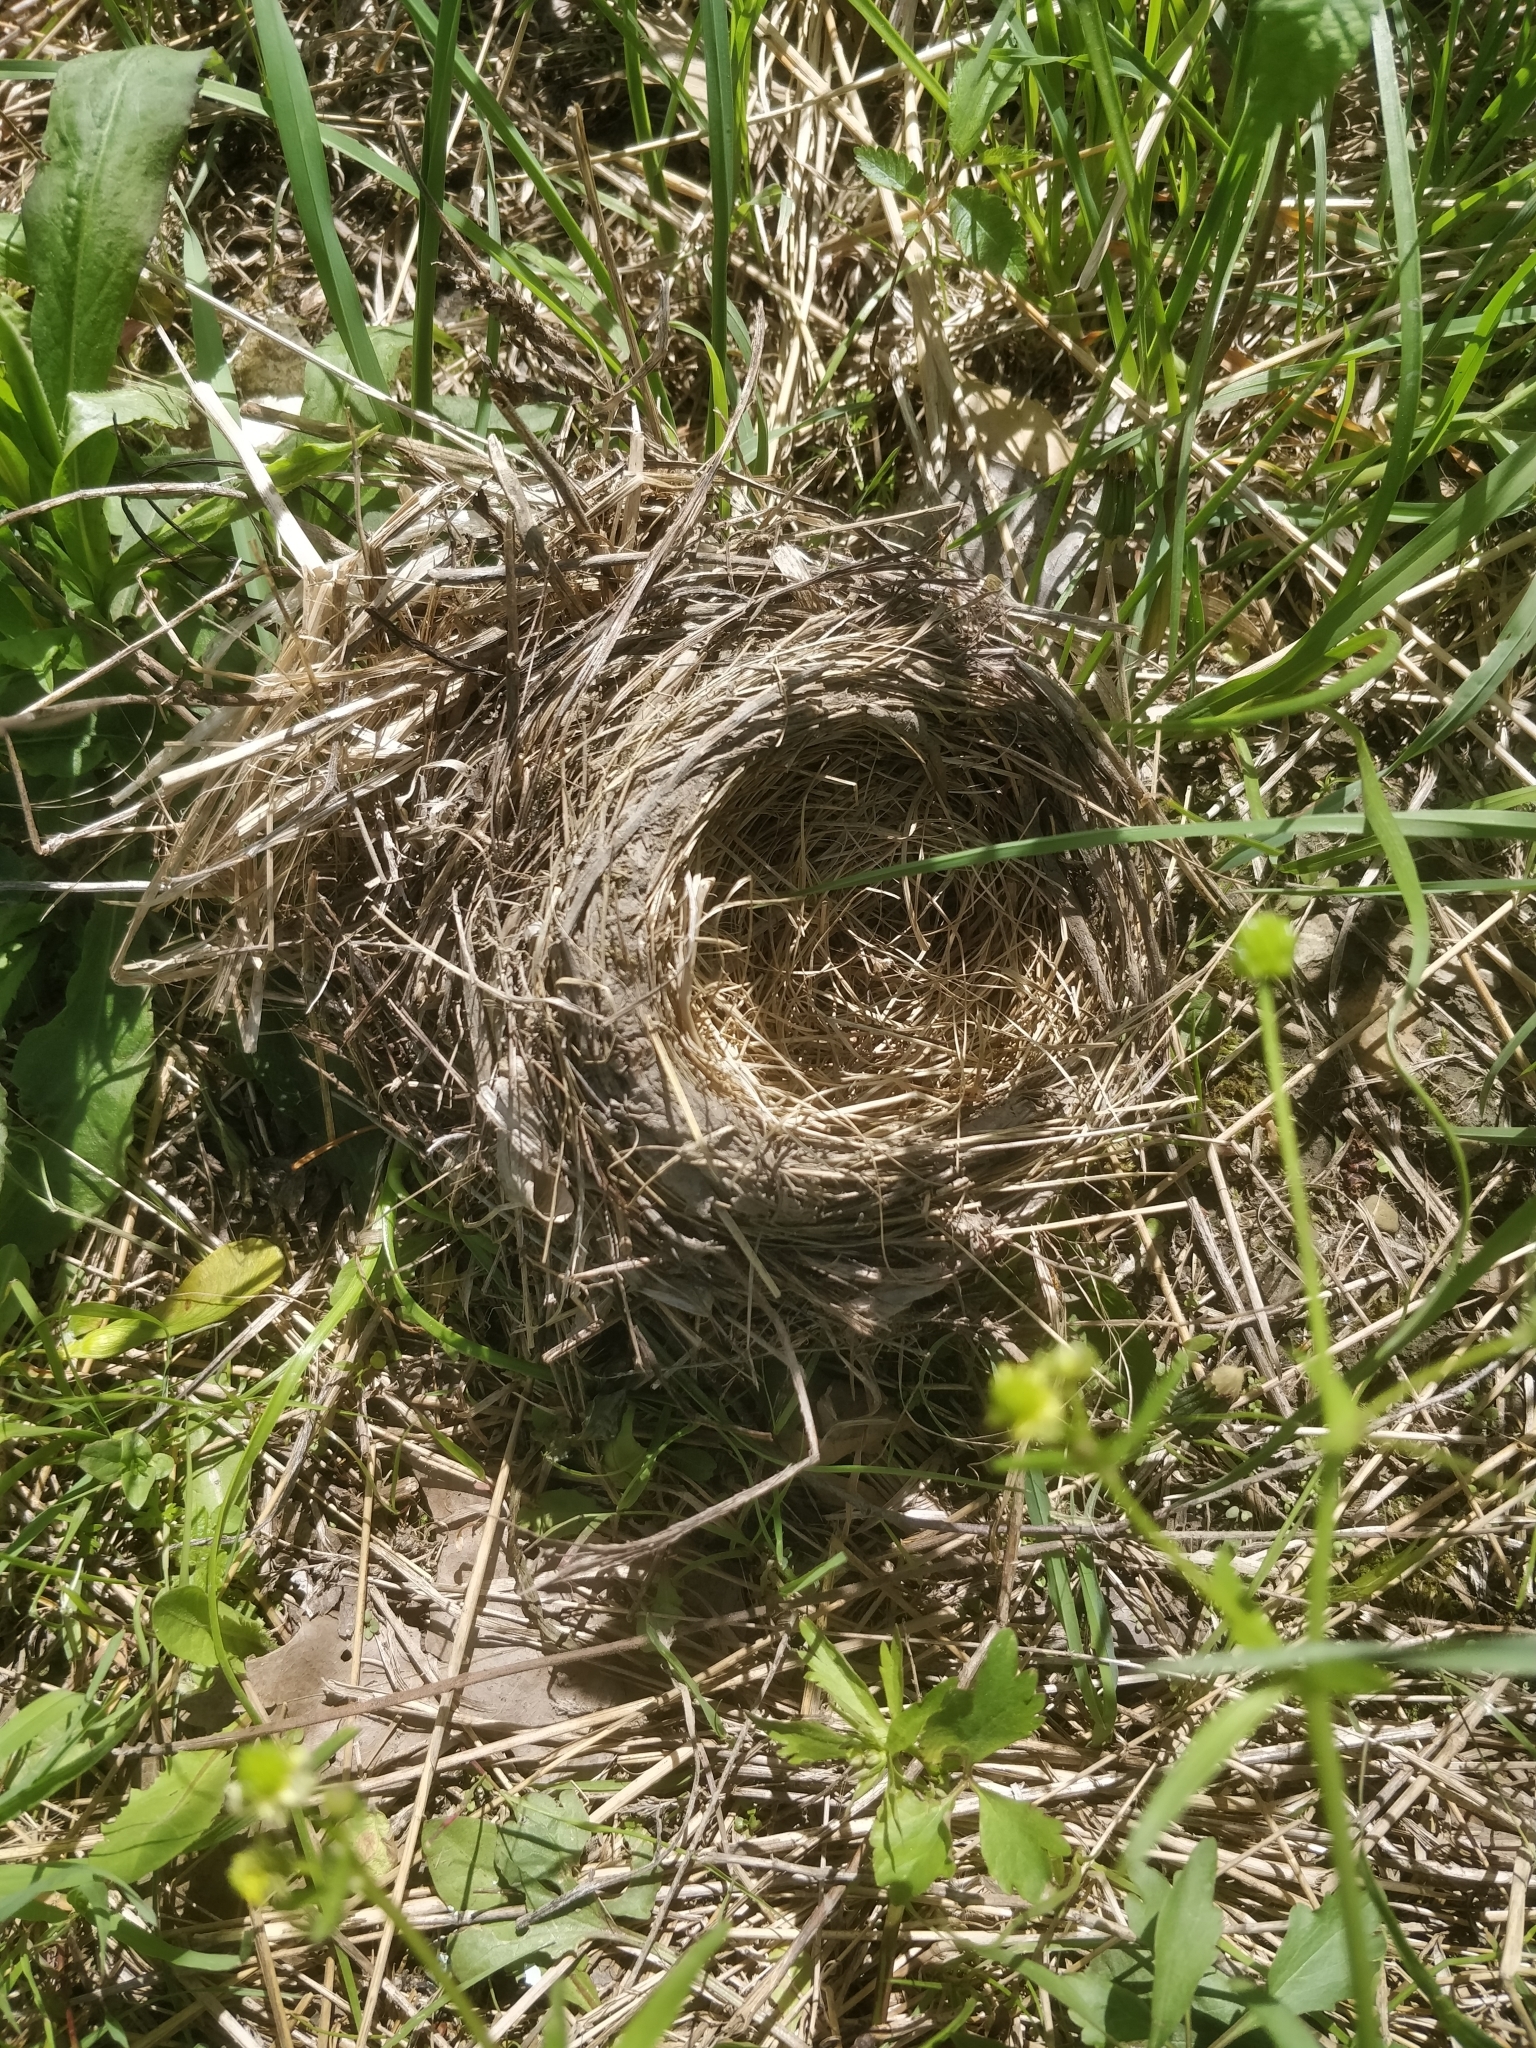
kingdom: Animalia
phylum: Chordata
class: Aves
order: Passeriformes
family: Turdidae
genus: Turdus
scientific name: Turdus migratorius
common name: American robin
